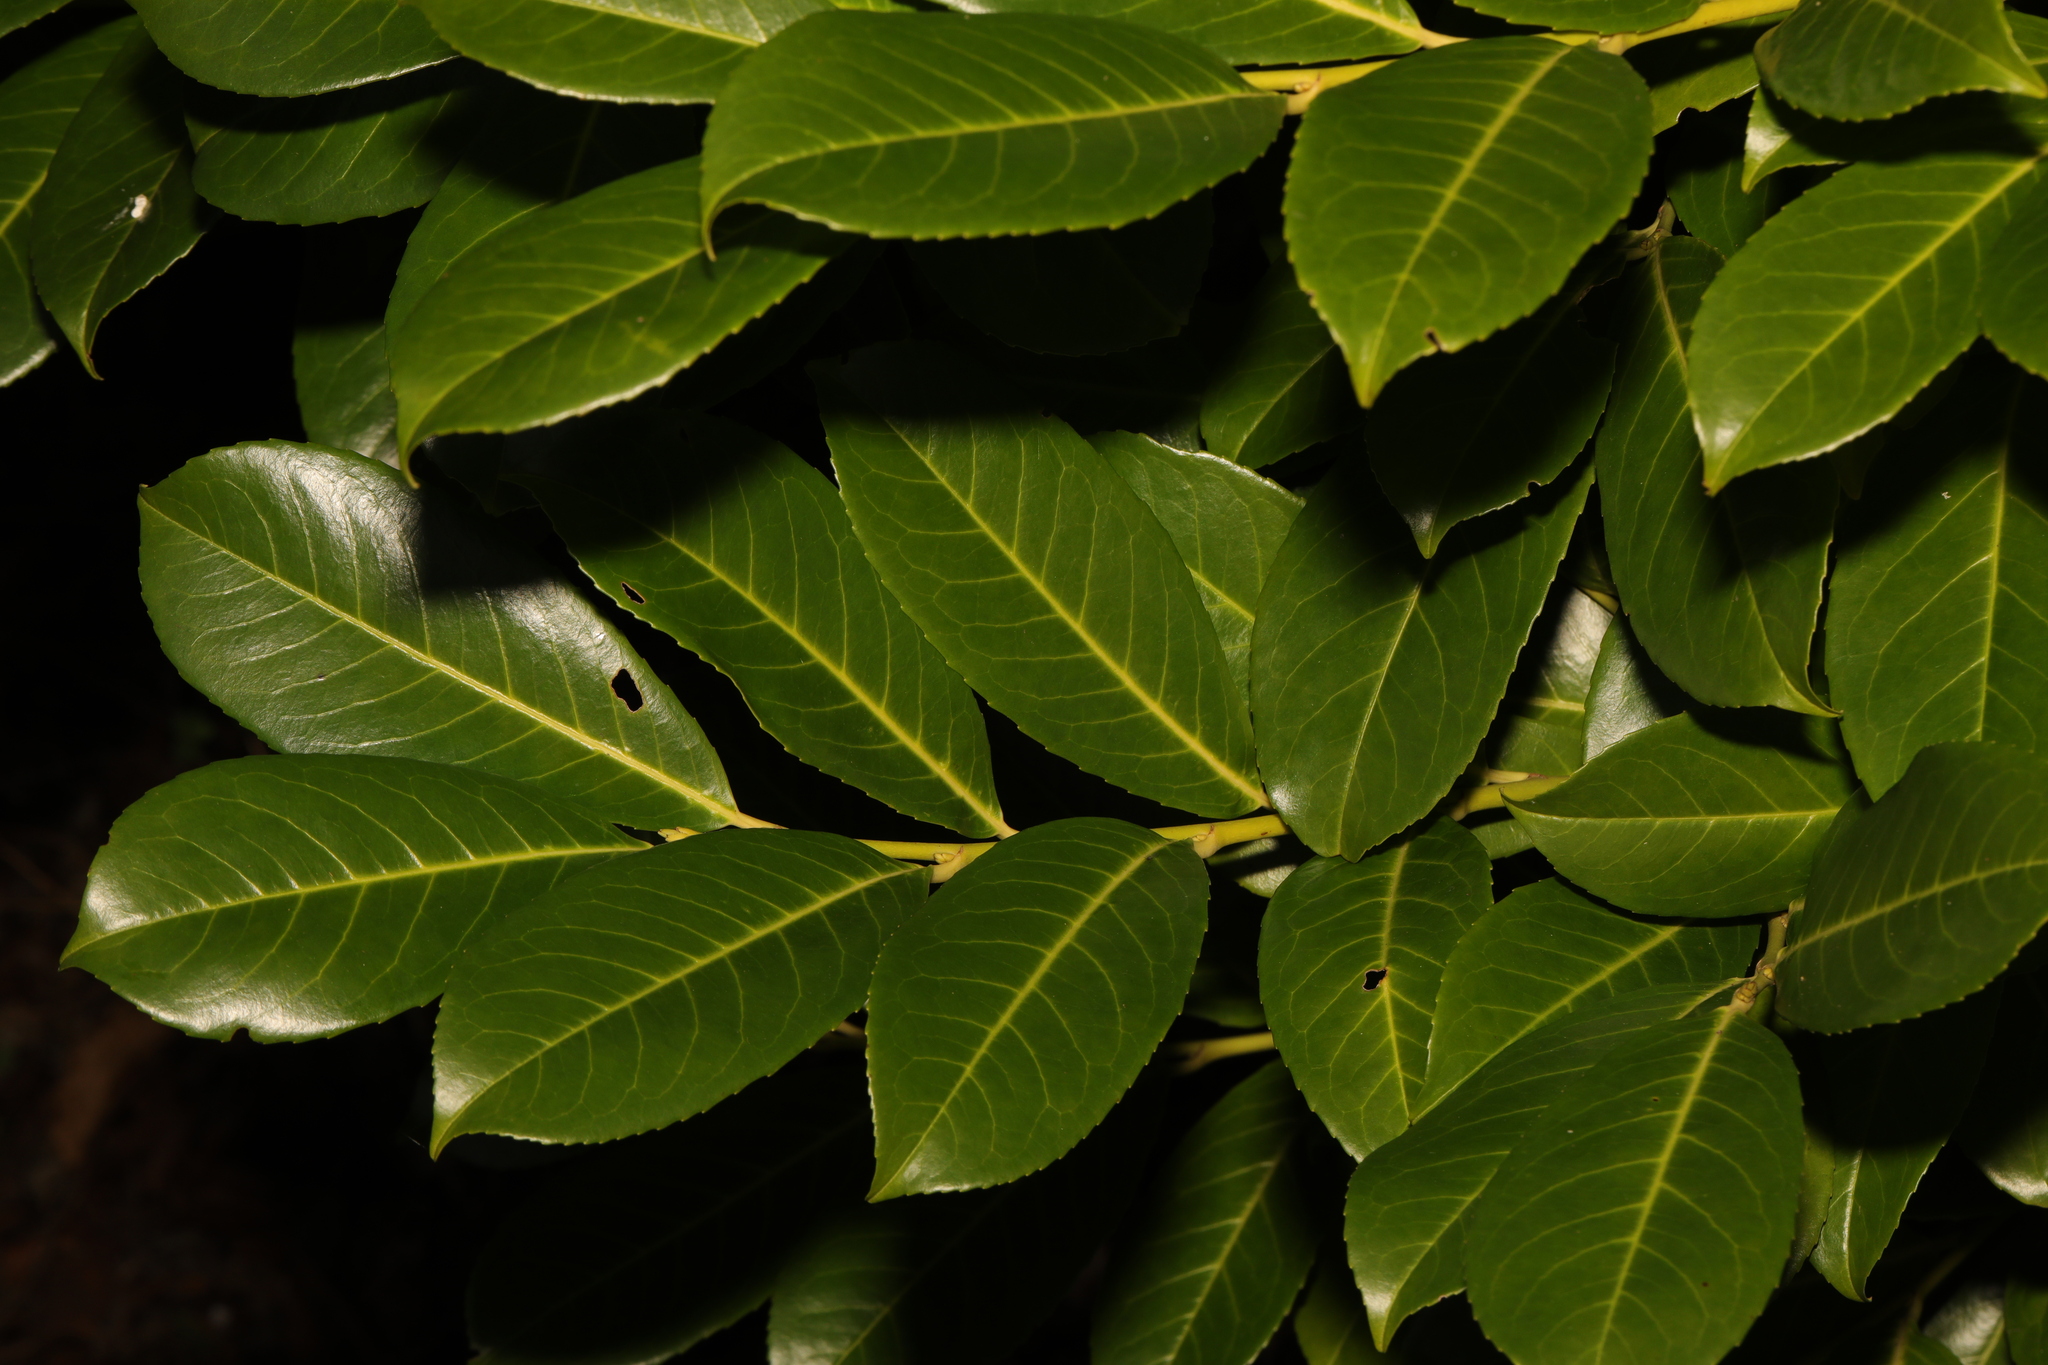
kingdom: Plantae
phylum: Tracheophyta
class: Magnoliopsida
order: Rosales
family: Rosaceae
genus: Prunus
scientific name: Prunus laurocerasus
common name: Cherry laurel
